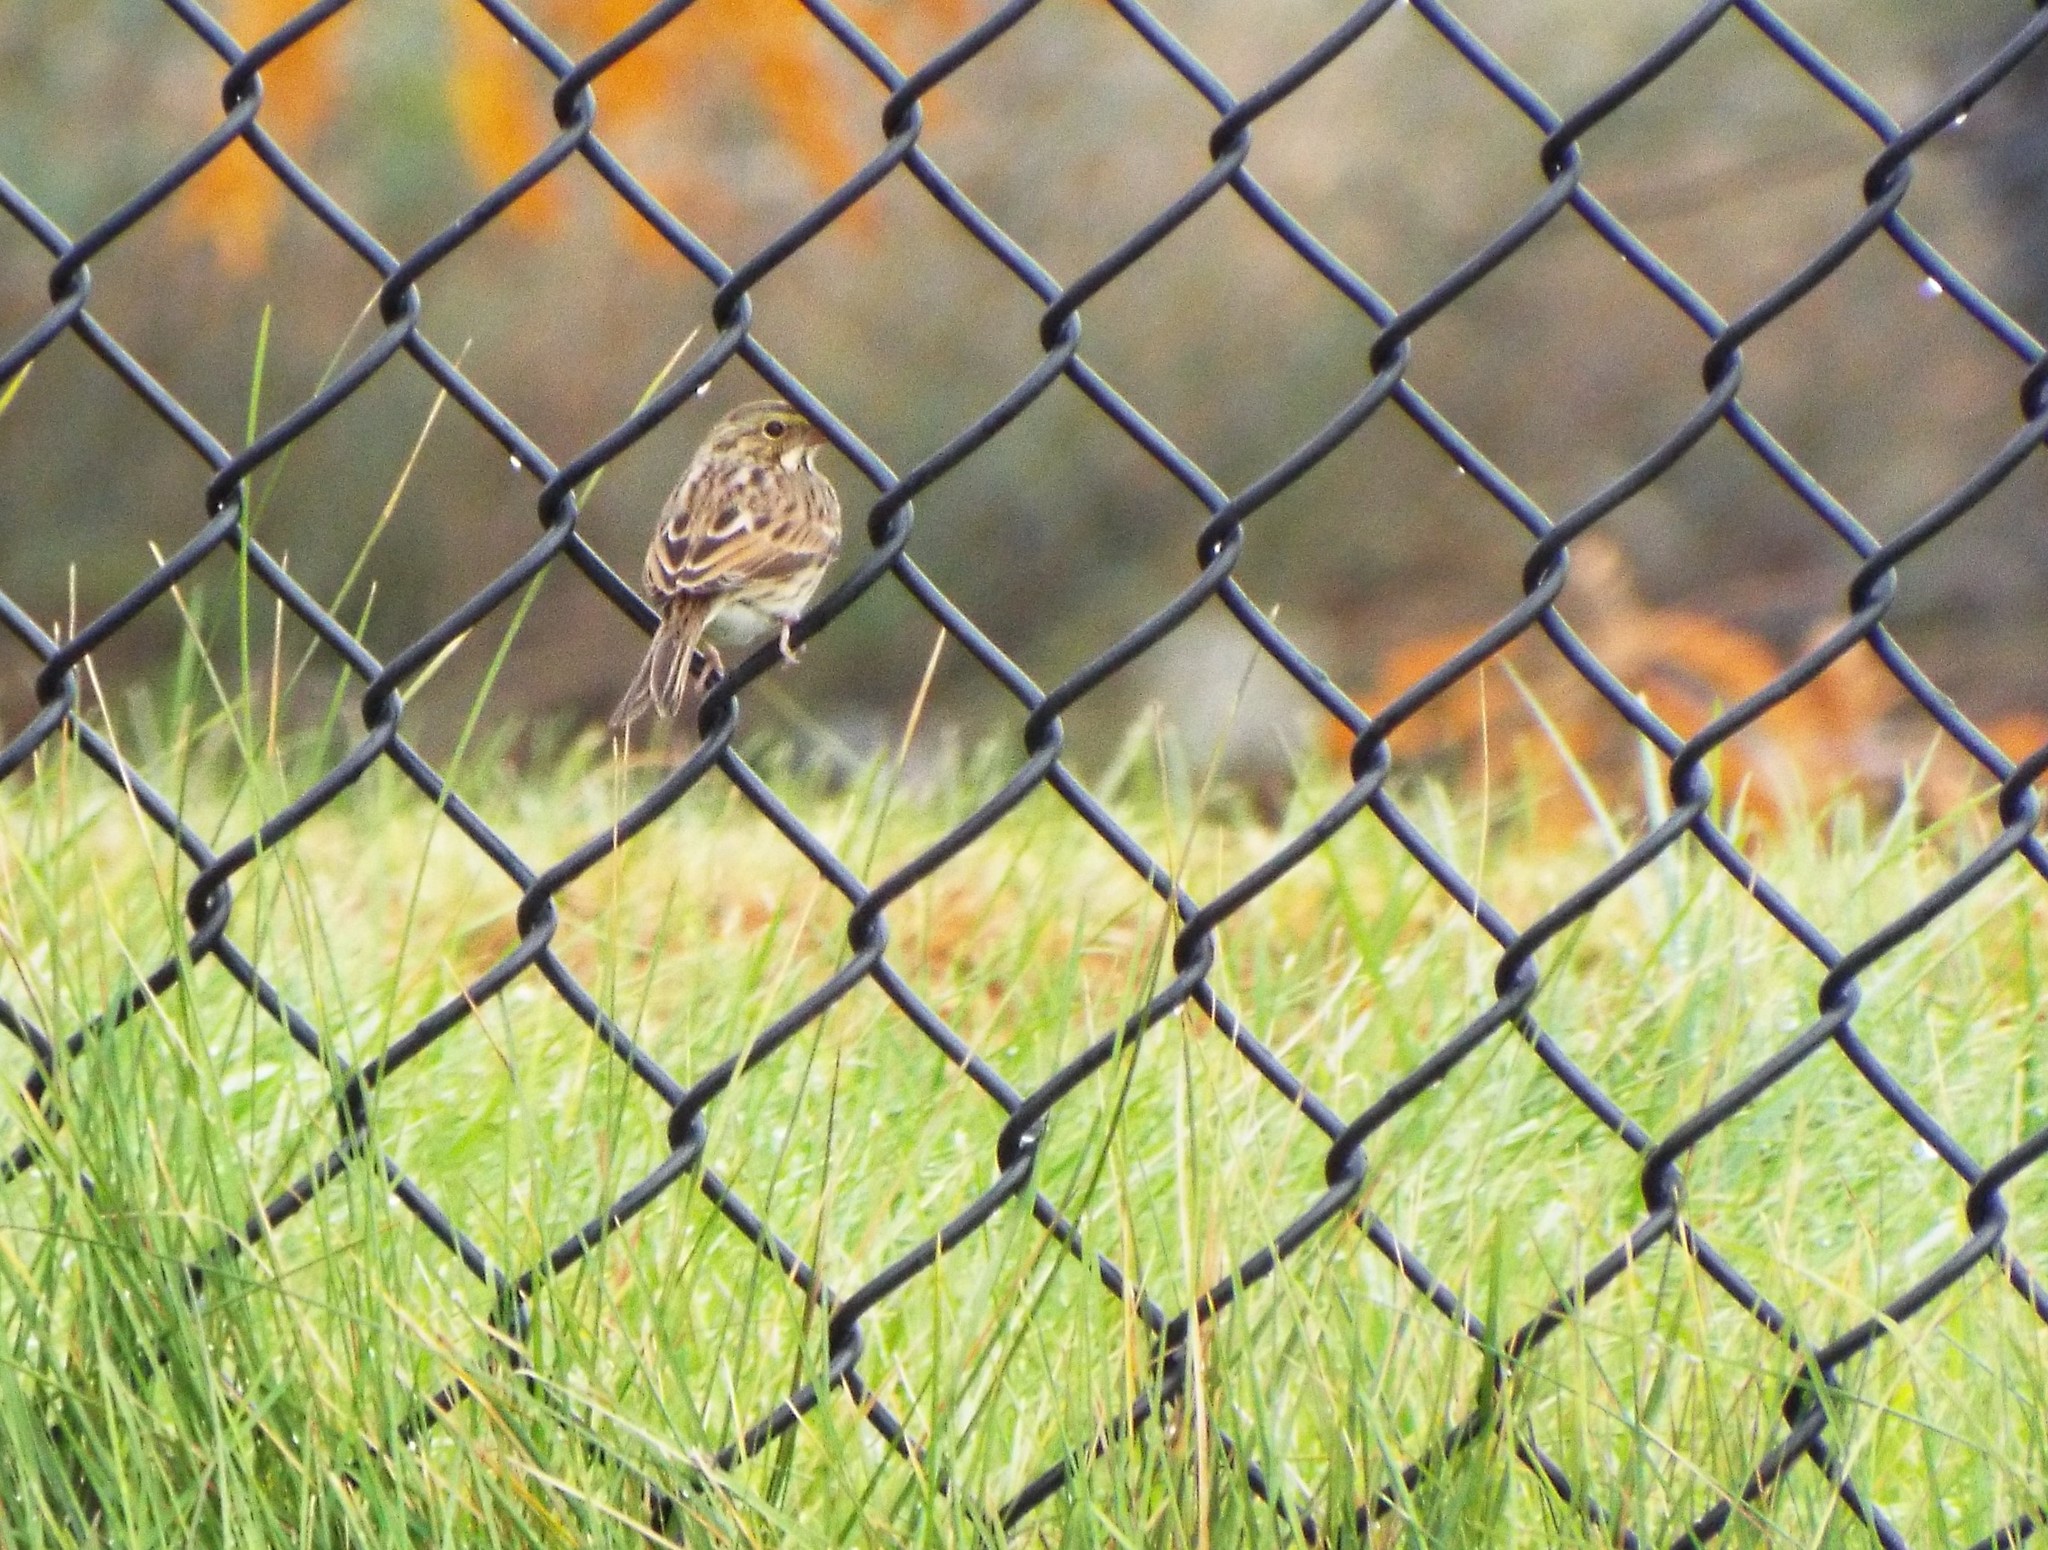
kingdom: Animalia
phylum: Chordata
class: Aves
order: Passeriformes
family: Passerellidae
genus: Passerculus
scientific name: Passerculus sandwichensis
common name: Savannah sparrow
